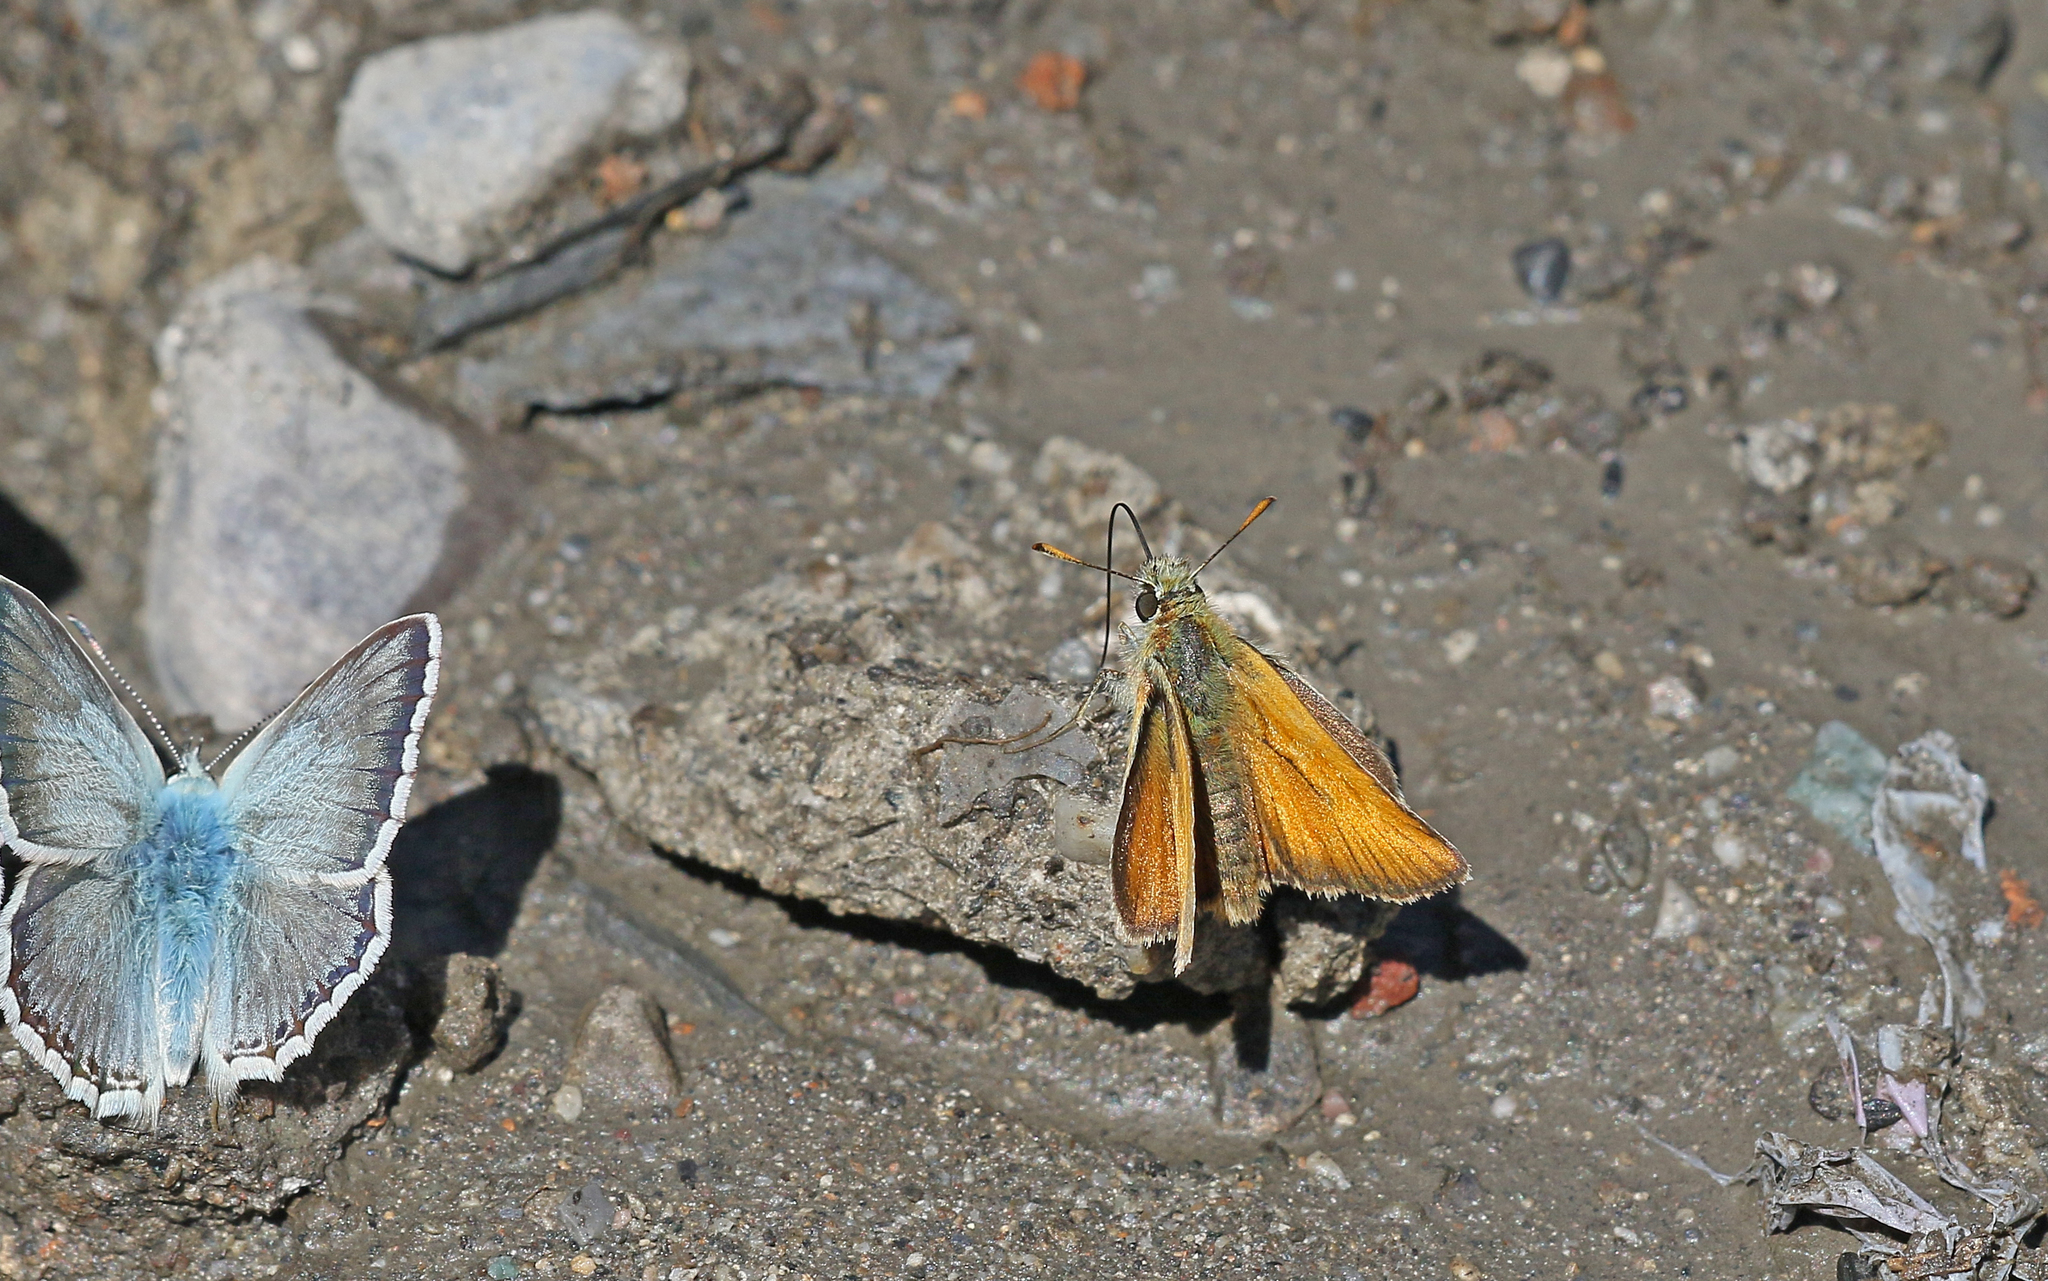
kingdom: Animalia
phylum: Arthropoda
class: Insecta
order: Lepidoptera
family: Hesperiidae
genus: Thymelicus
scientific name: Thymelicus sylvestris
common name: Small skipper
